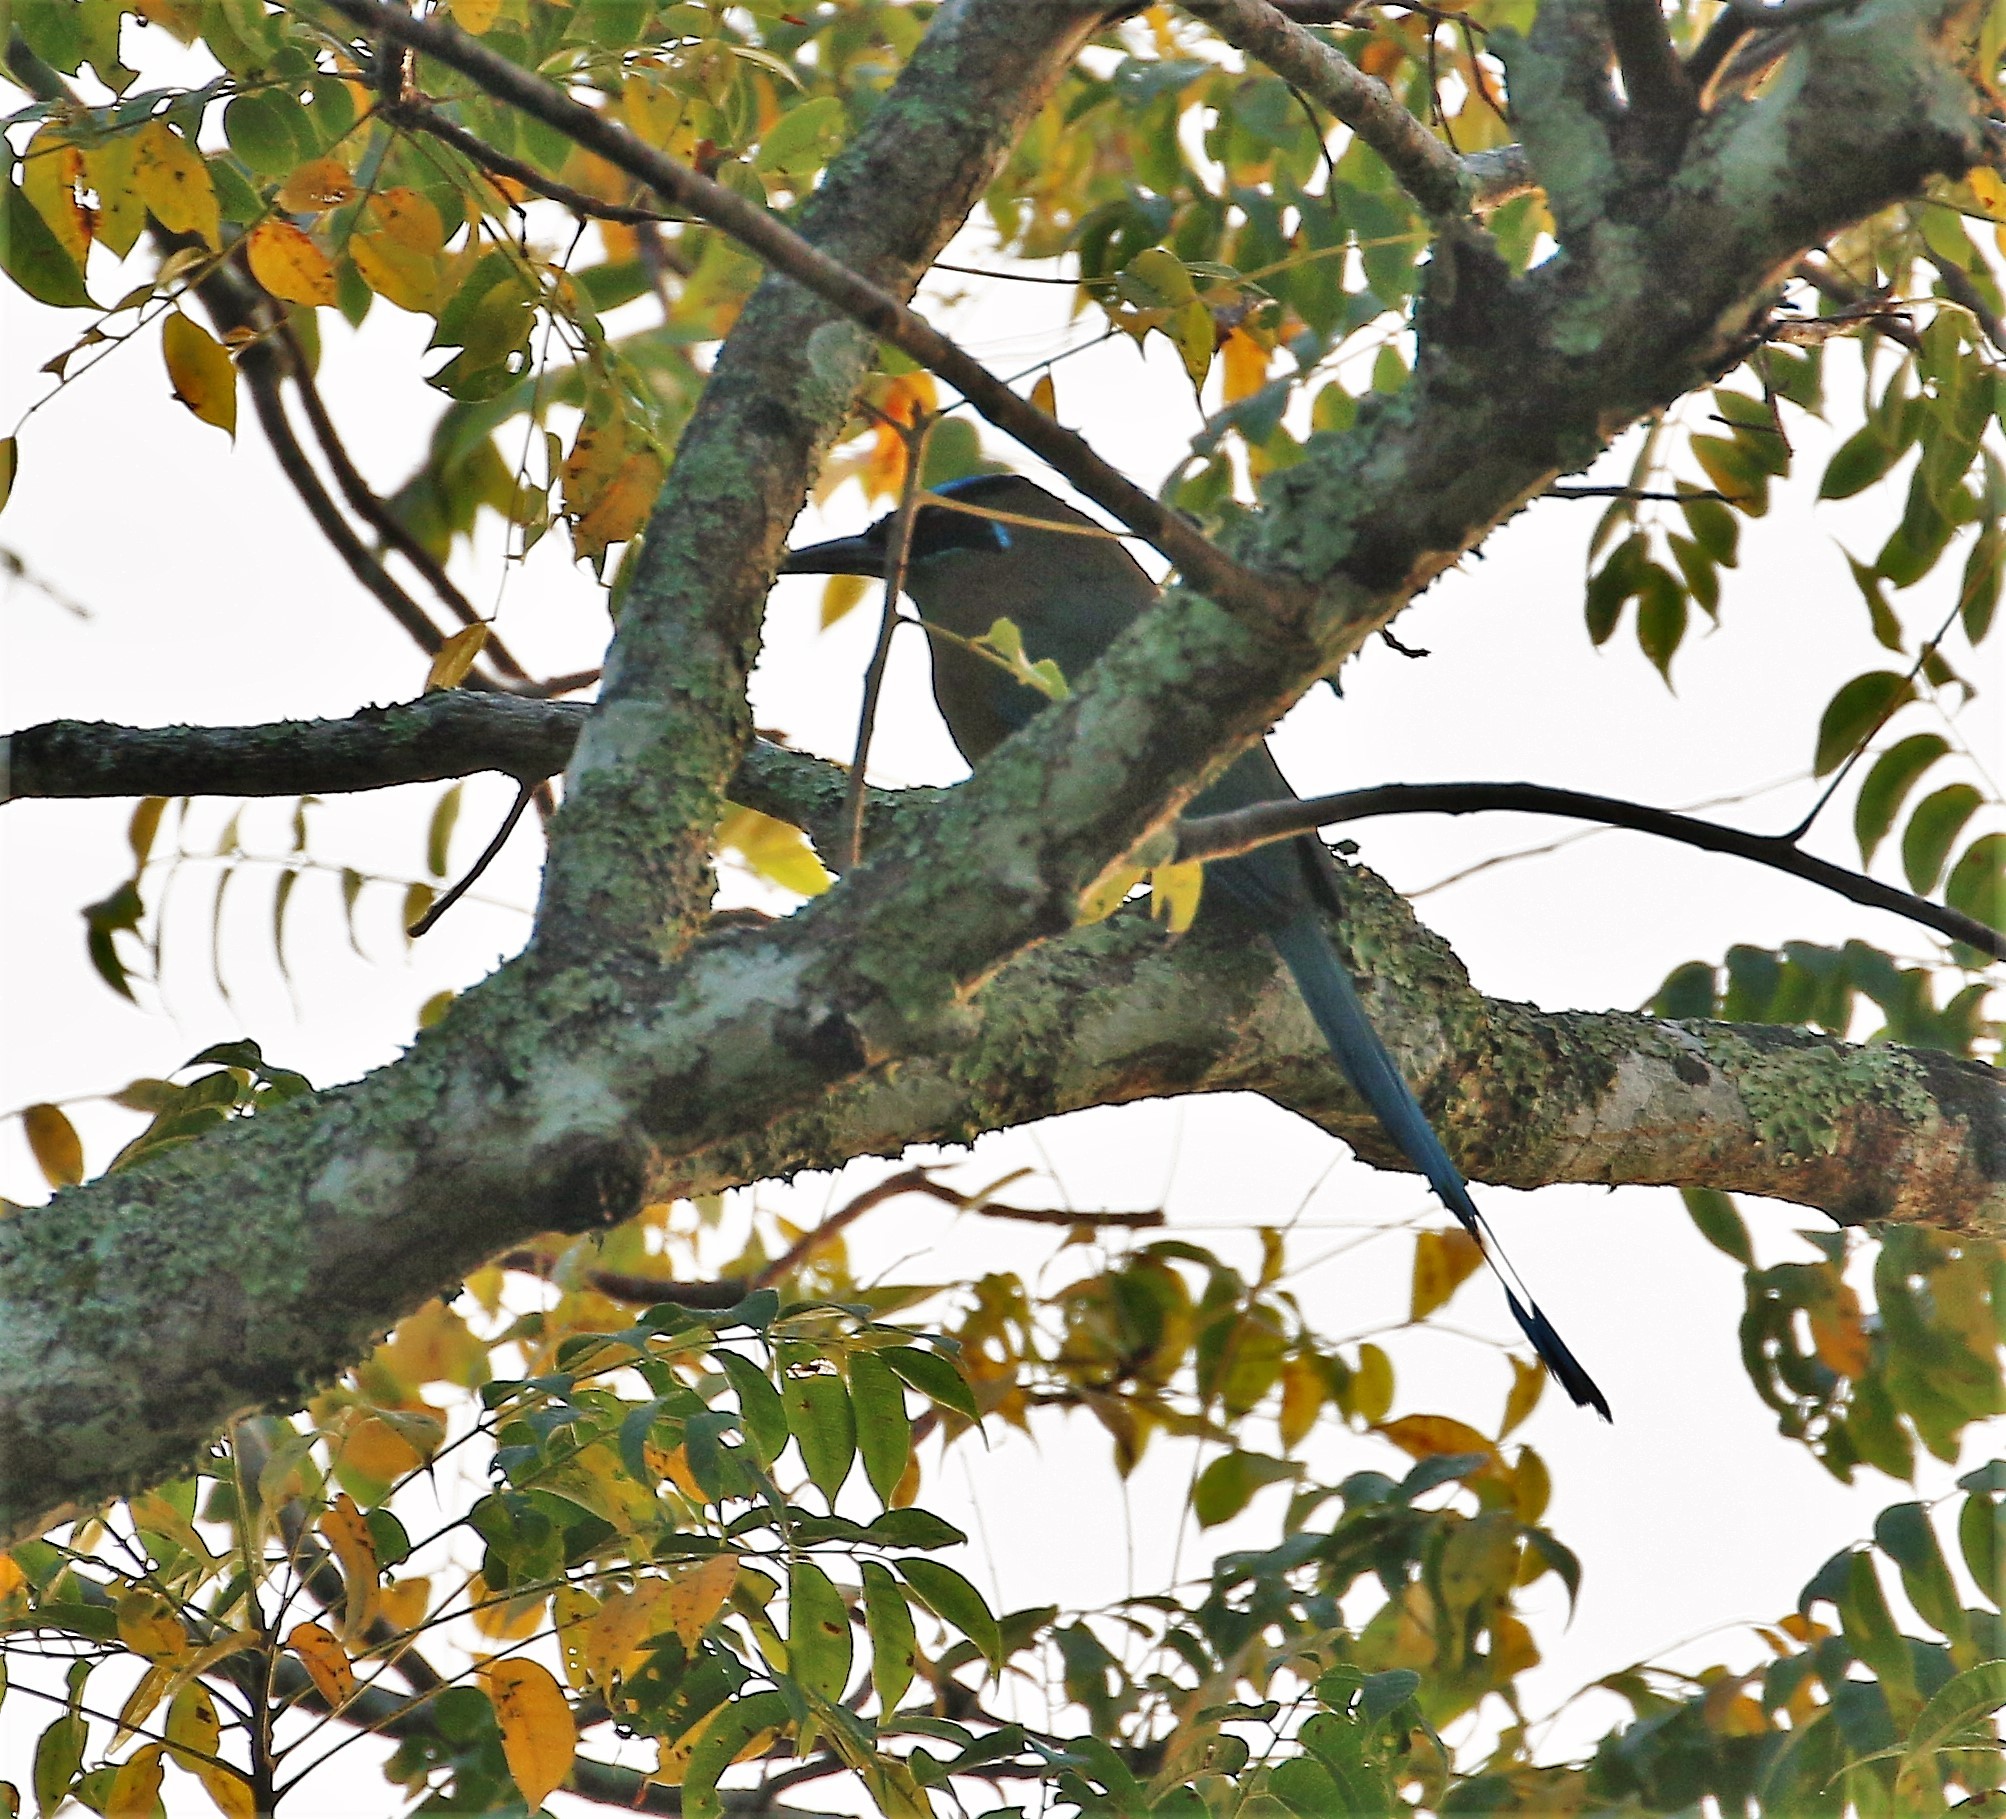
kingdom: Animalia
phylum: Chordata
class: Aves
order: Coraciiformes
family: Momotidae
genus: Momotus
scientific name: Momotus lessonii
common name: Lesson's motmot
